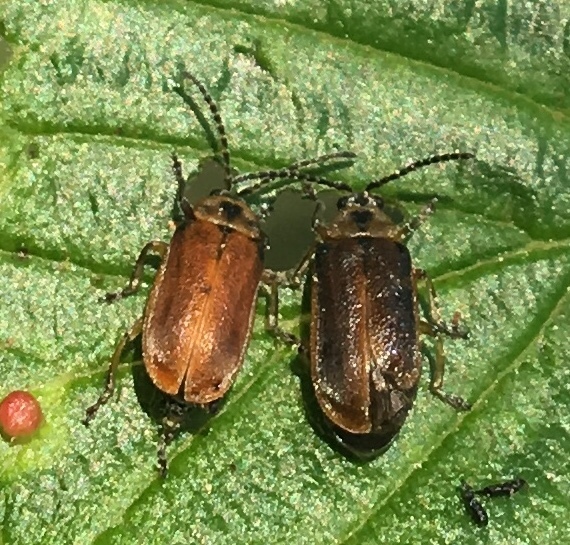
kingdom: Animalia
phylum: Arthropoda
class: Insecta
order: Coleoptera
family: Chrysomelidae
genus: Galerucella
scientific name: Galerucella lineola
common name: Brown willow beetle
